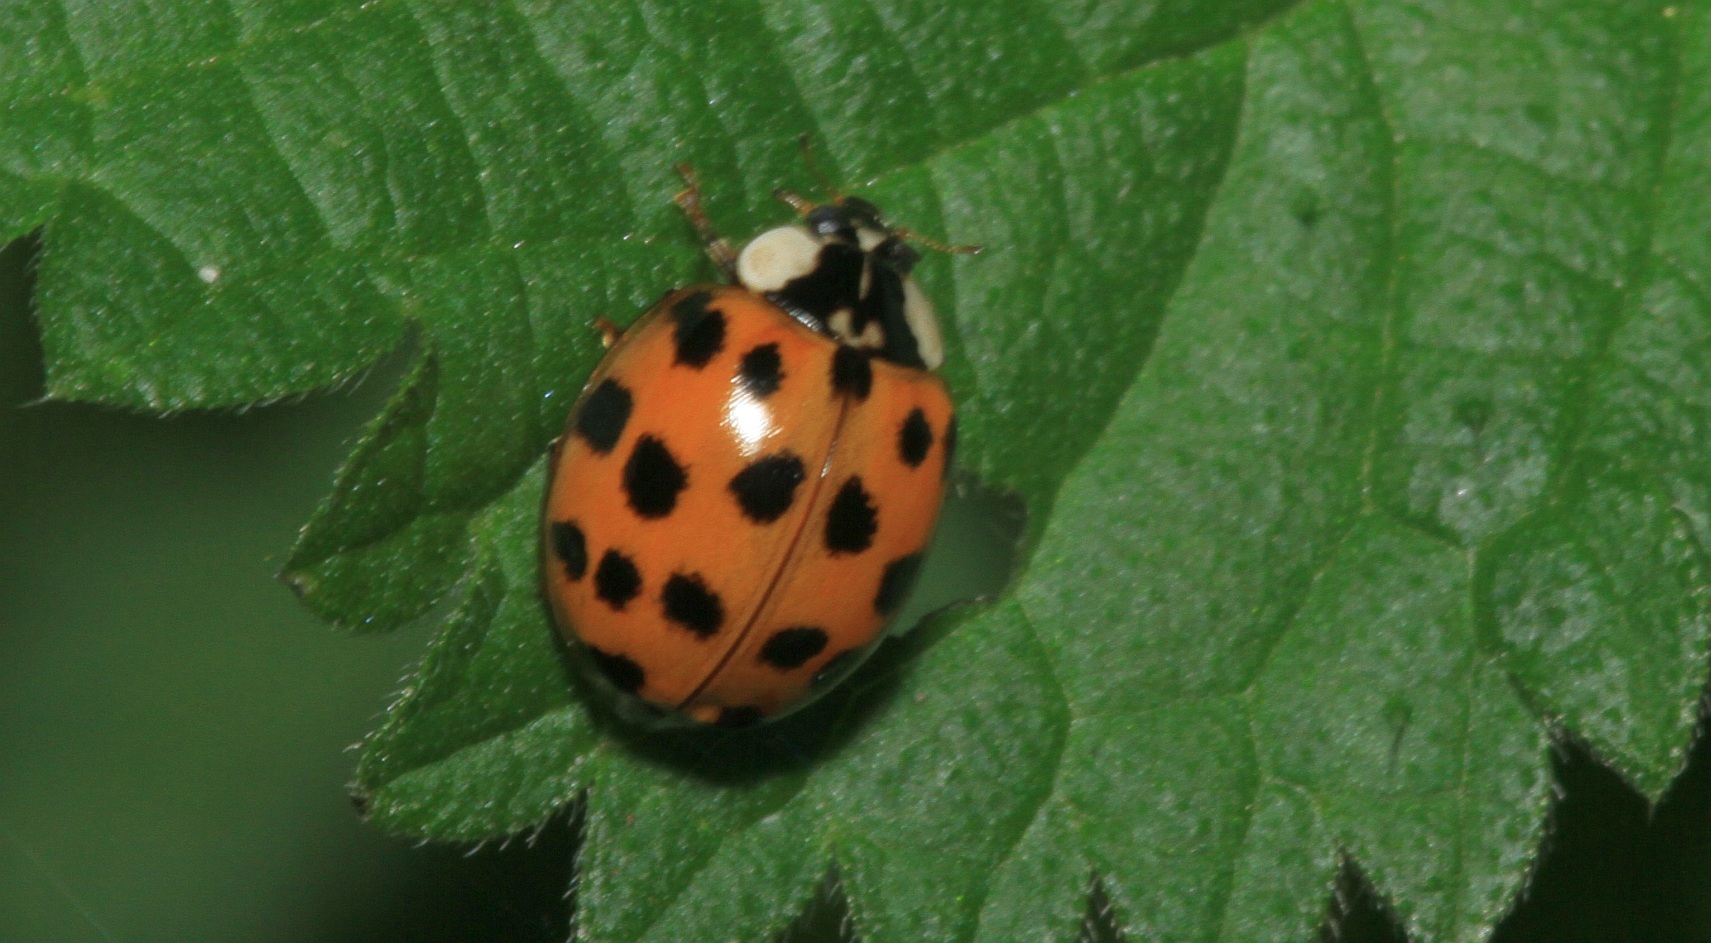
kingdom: Animalia
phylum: Arthropoda
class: Insecta
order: Coleoptera
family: Coccinellidae
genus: Harmonia
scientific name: Harmonia axyridis
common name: Harlequin ladybird
